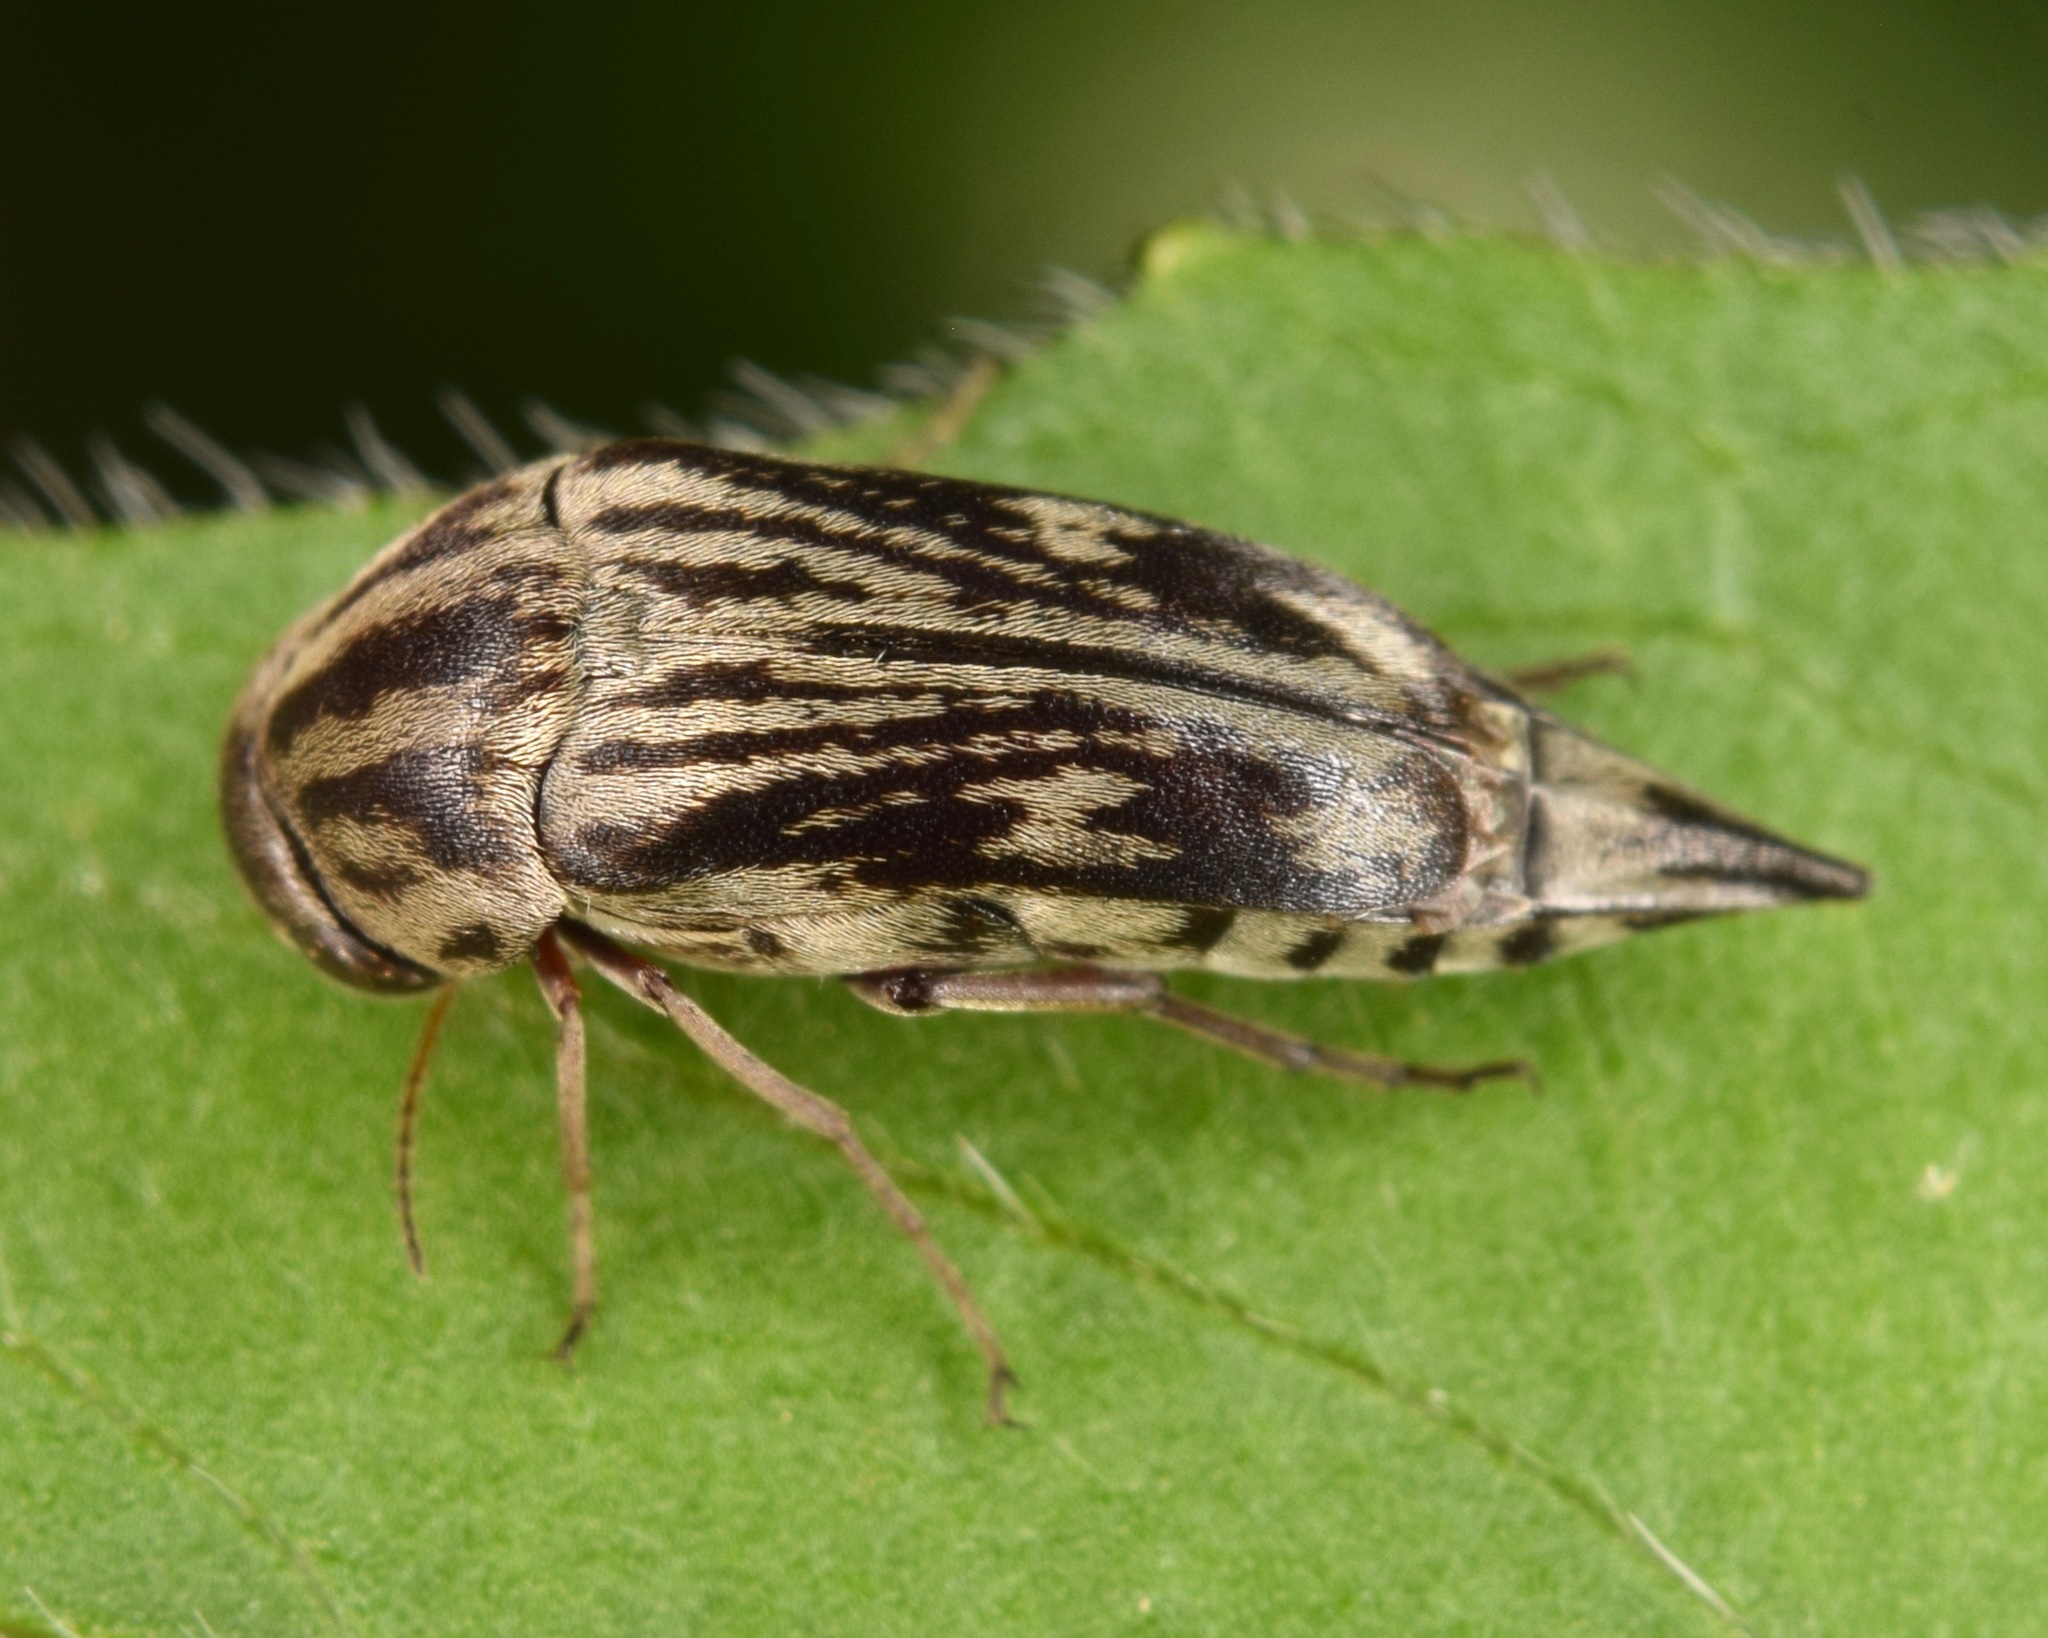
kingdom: Animalia
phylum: Arthropoda
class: Insecta
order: Coleoptera
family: Mordellidae
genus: Tomoxia
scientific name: Tomoxia lineella
